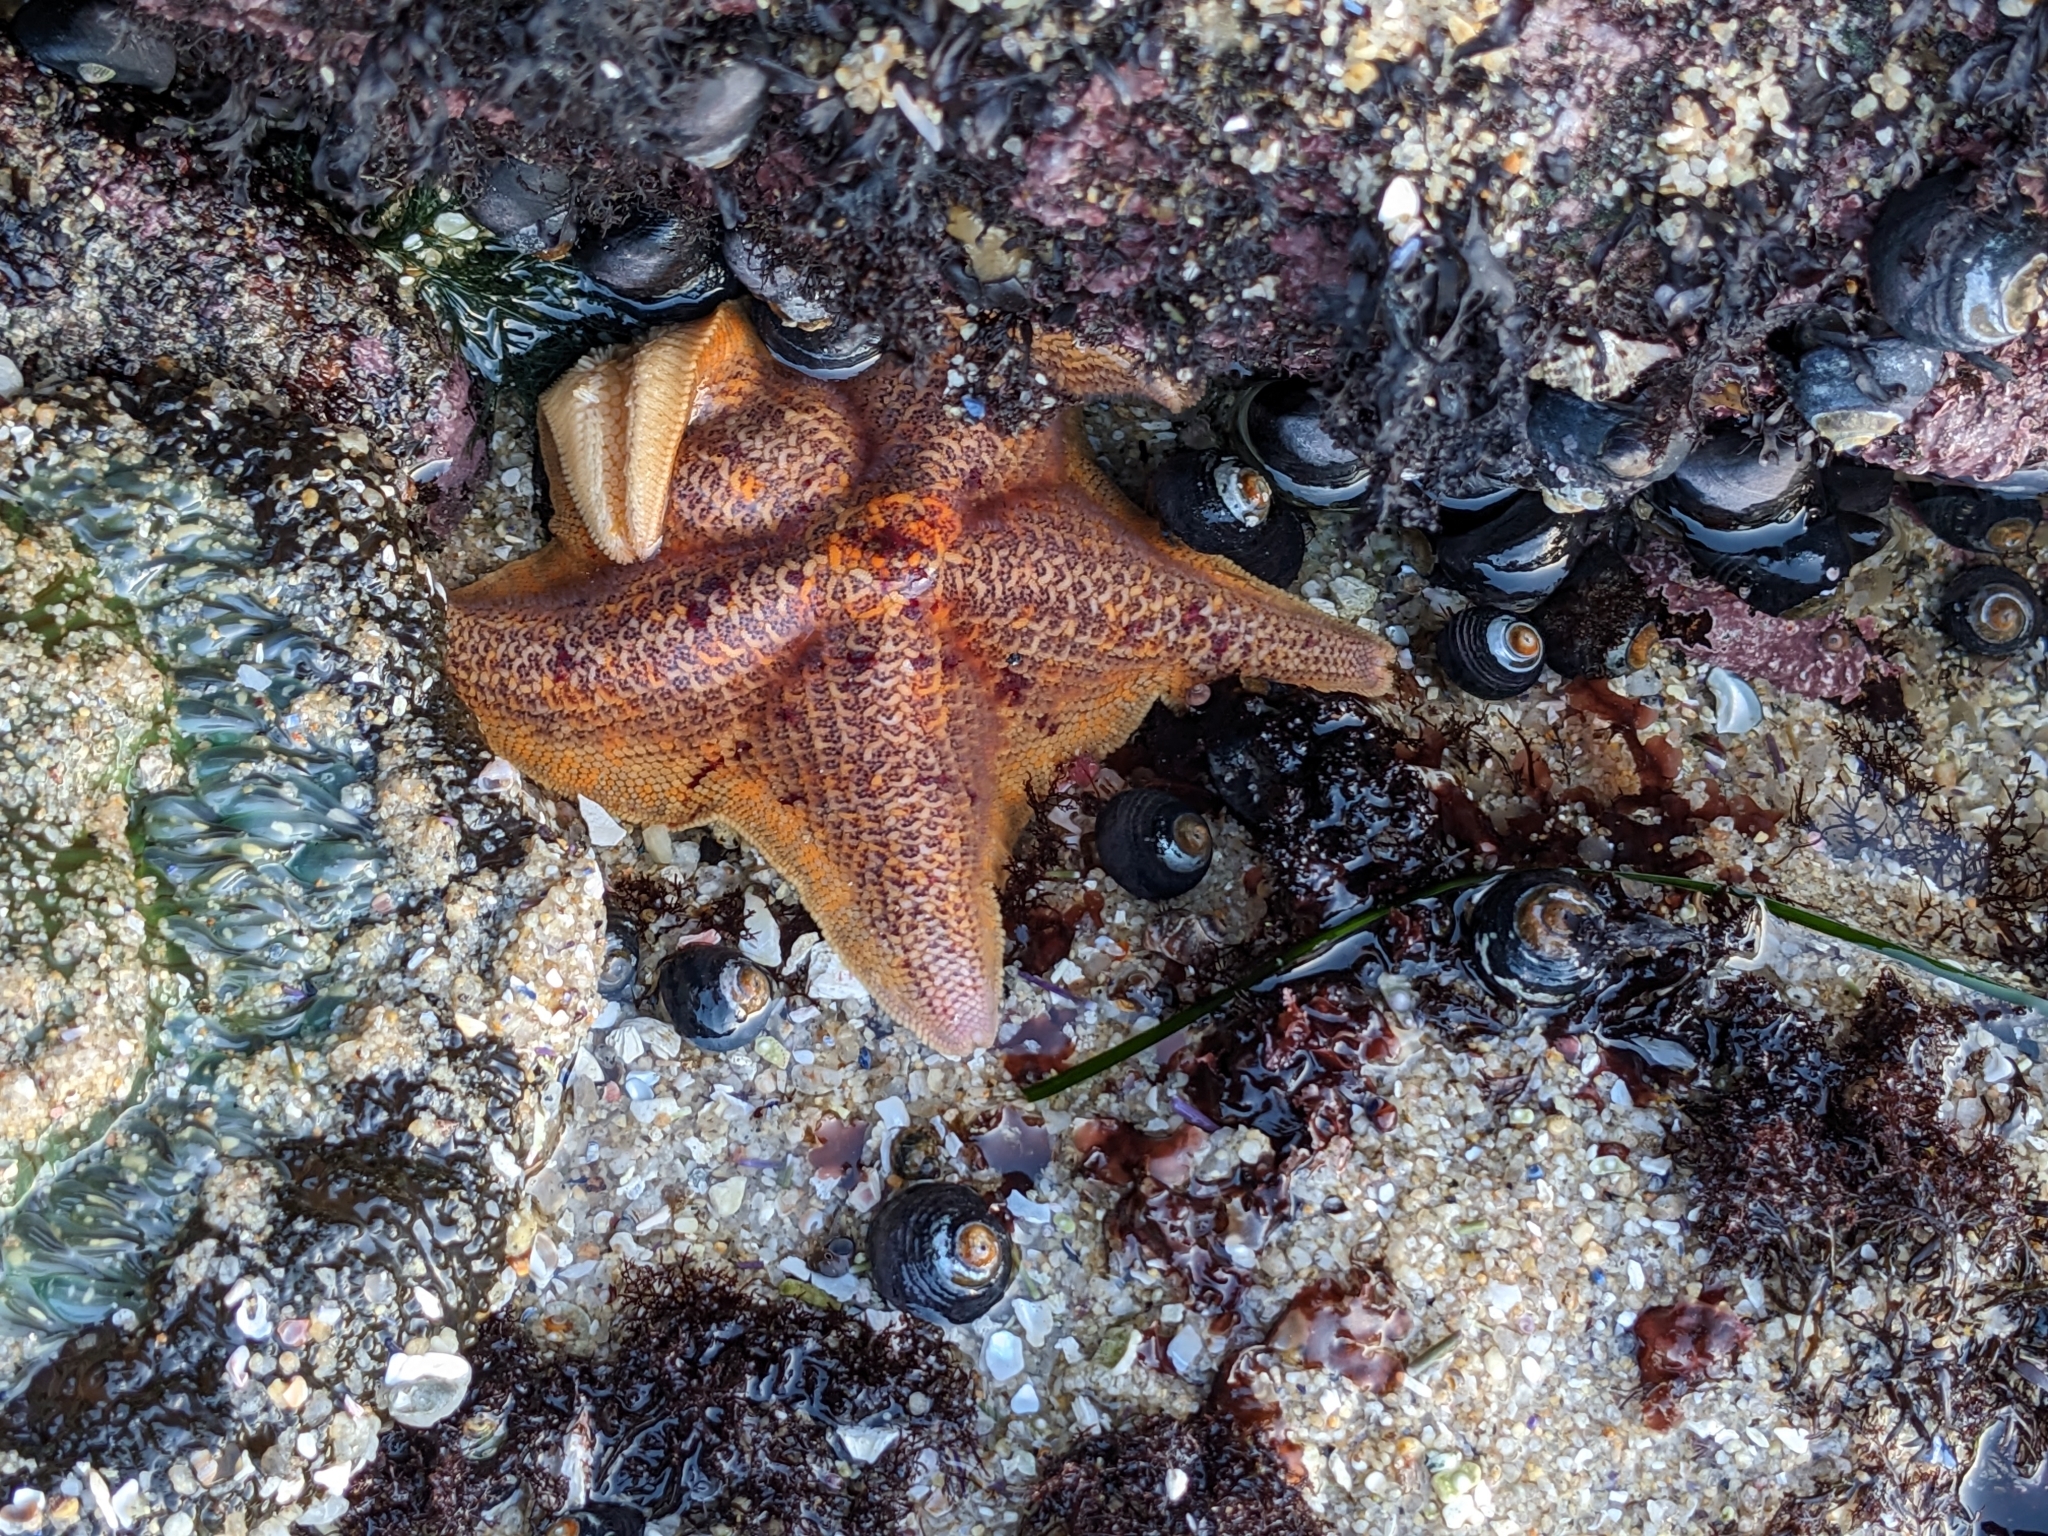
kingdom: Animalia
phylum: Echinodermata
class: Asteroidea
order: Valvatida
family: Asterinidae
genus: Patiria
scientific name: Patiria miniata
